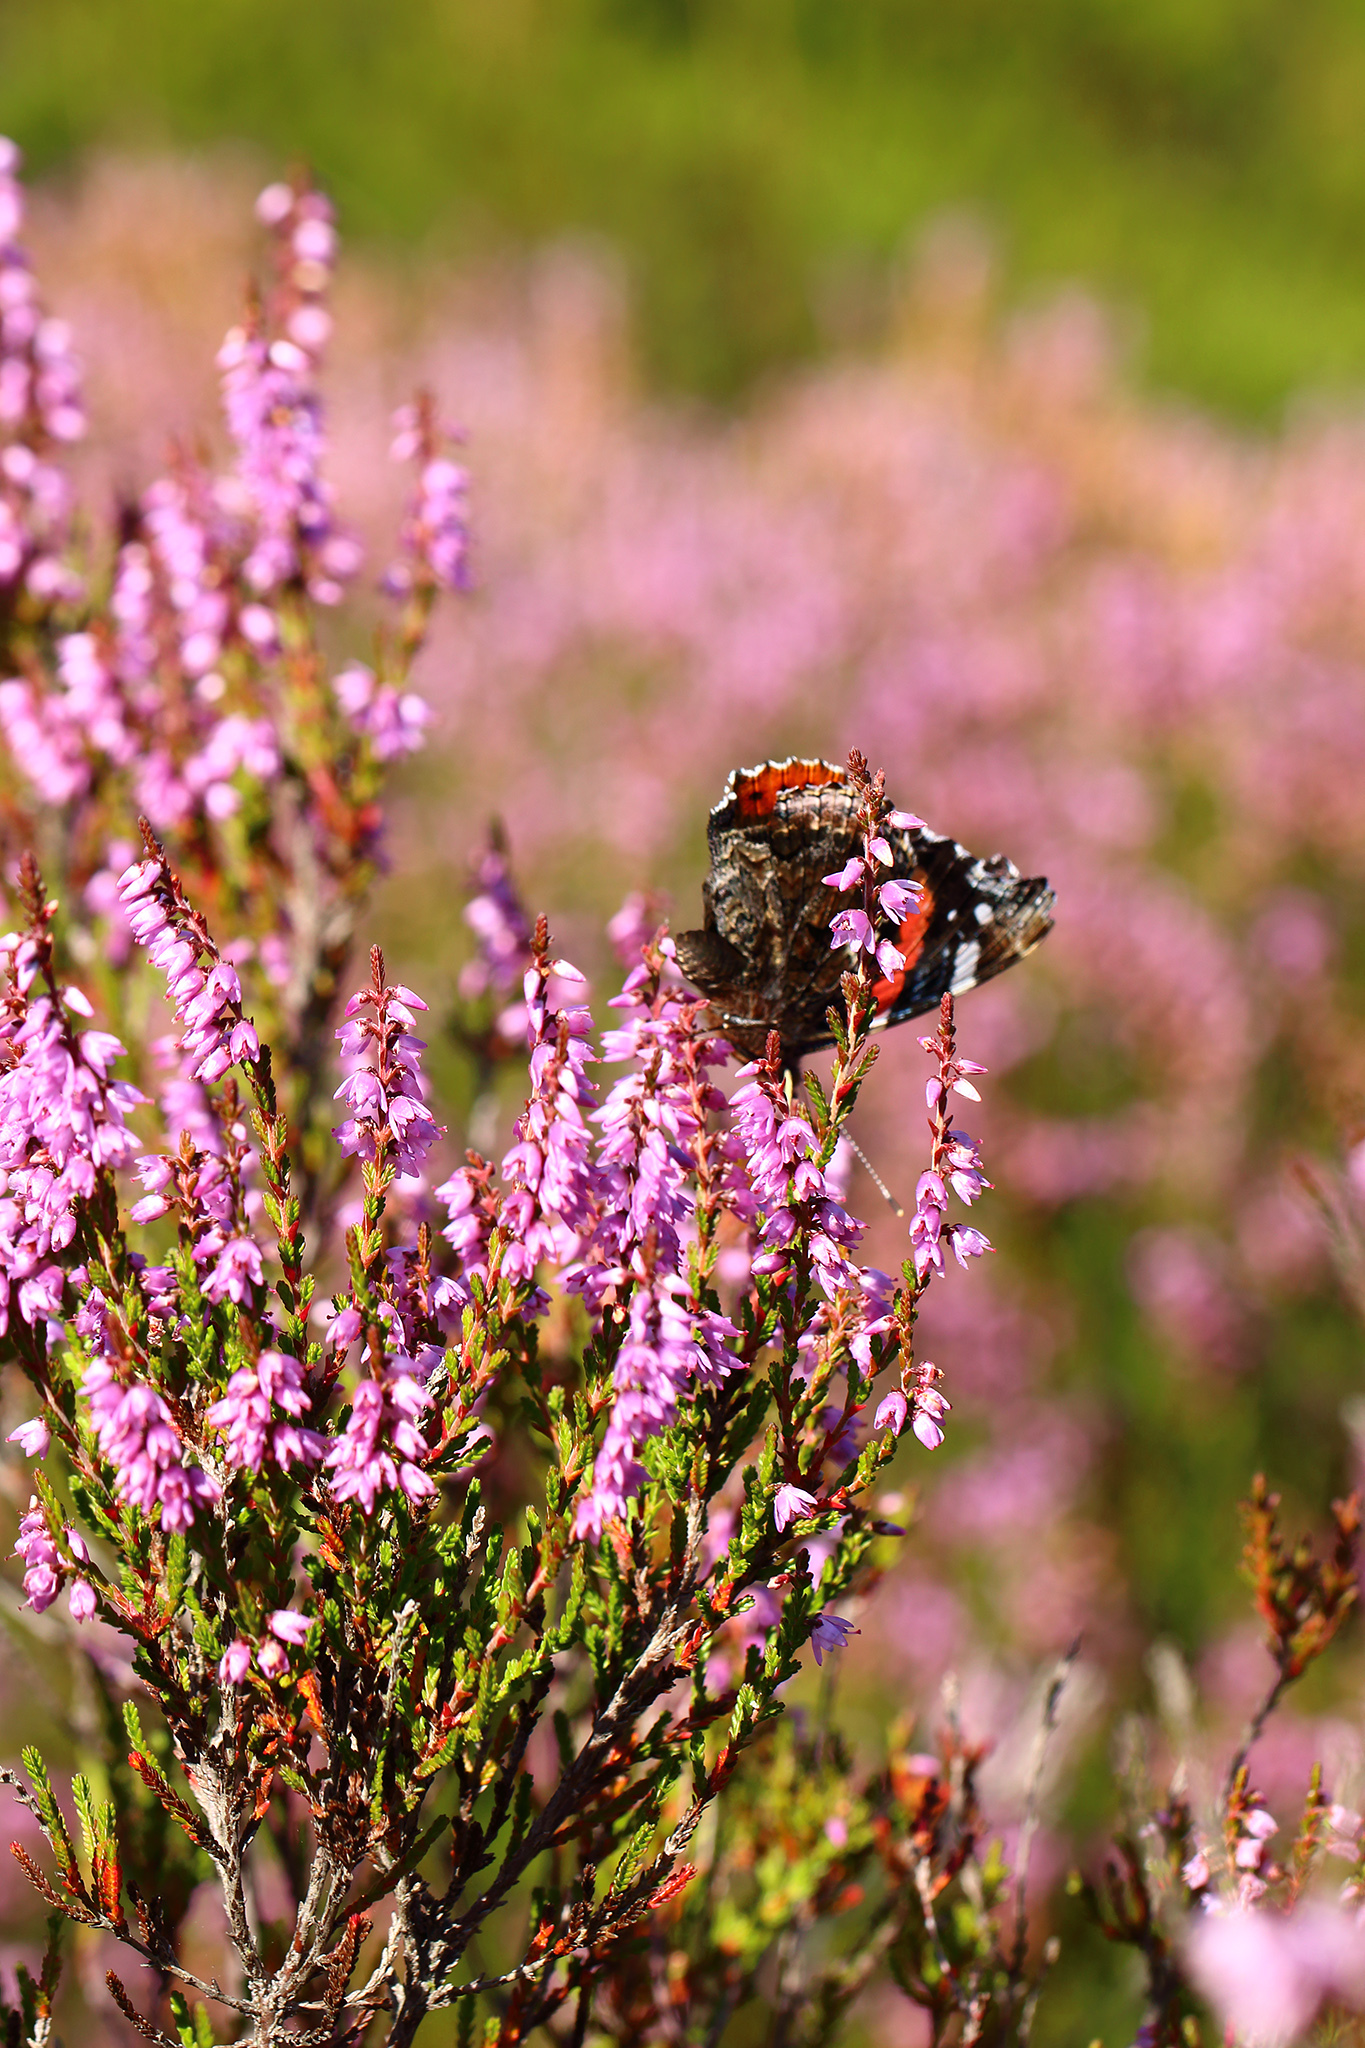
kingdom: Animalia
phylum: Arthropoda
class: Insecta
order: Lepidoptera
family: Nymphalidae
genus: Vanessa
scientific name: Vanessa atalanta
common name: Red admiral
